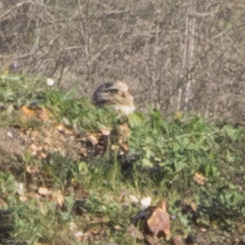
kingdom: Animalia
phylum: Chordata
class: Aves
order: Strigiformes
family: Strigidae
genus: Athene
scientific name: Athene cunicularia
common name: Burrowing owl
